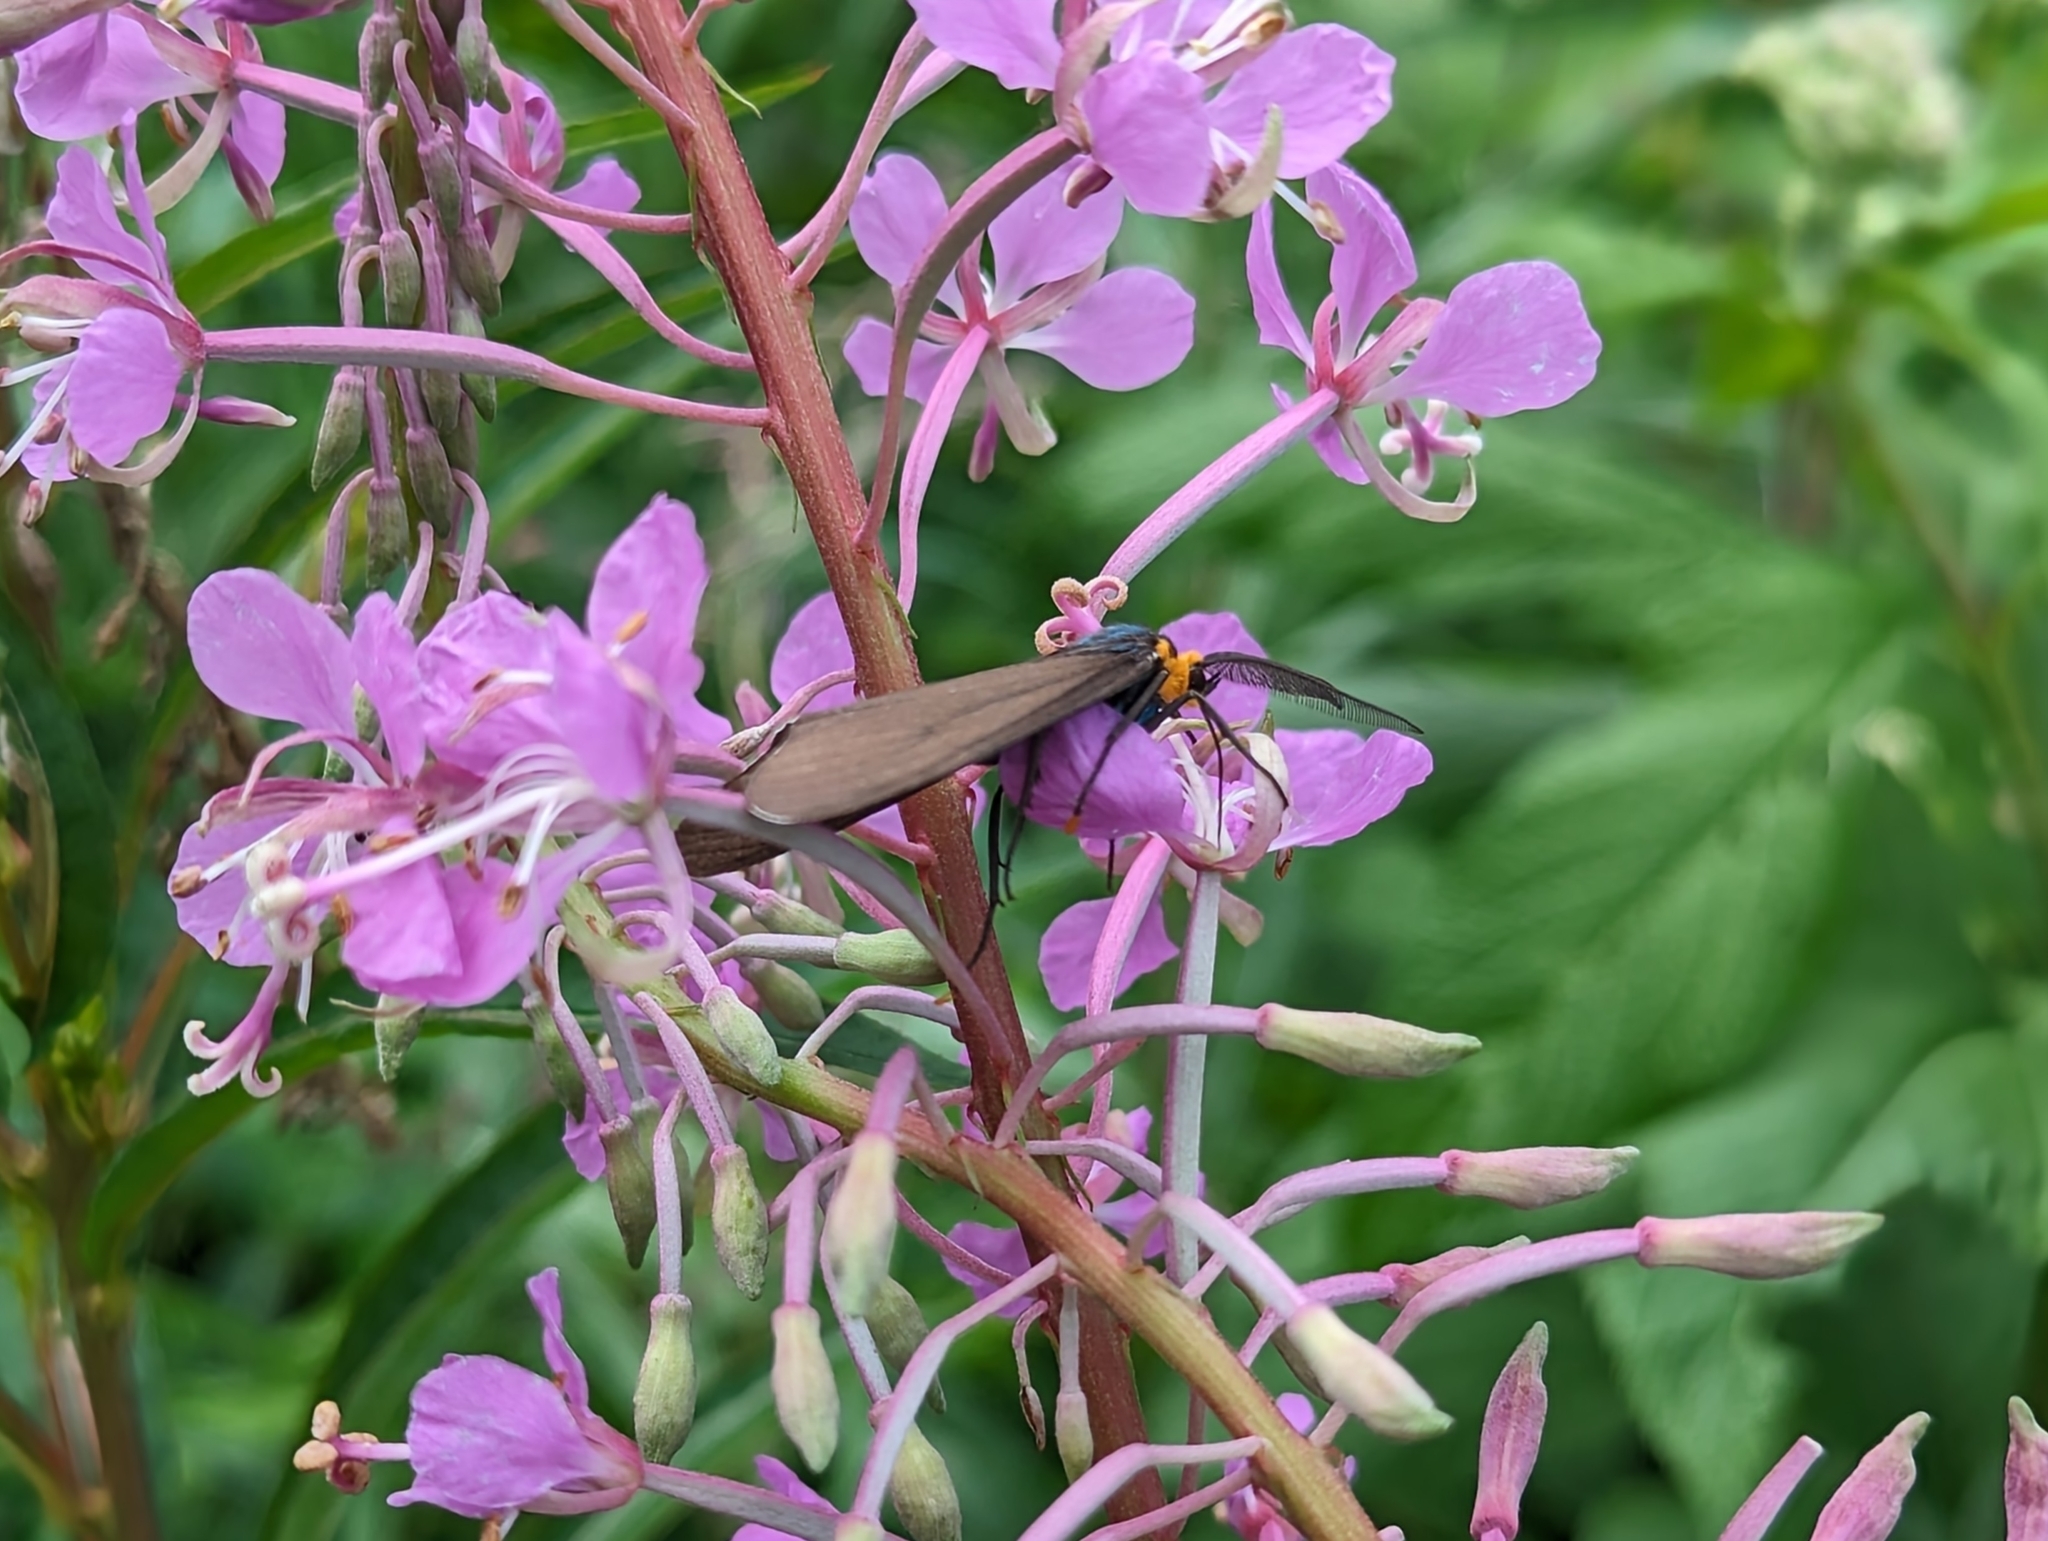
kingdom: Animalia
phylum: Arthropoda
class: Insecta
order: Lepidoptera
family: Erebidae
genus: Ctenucha
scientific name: Ctenucha virginica
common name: Virginia ctenucha moth
